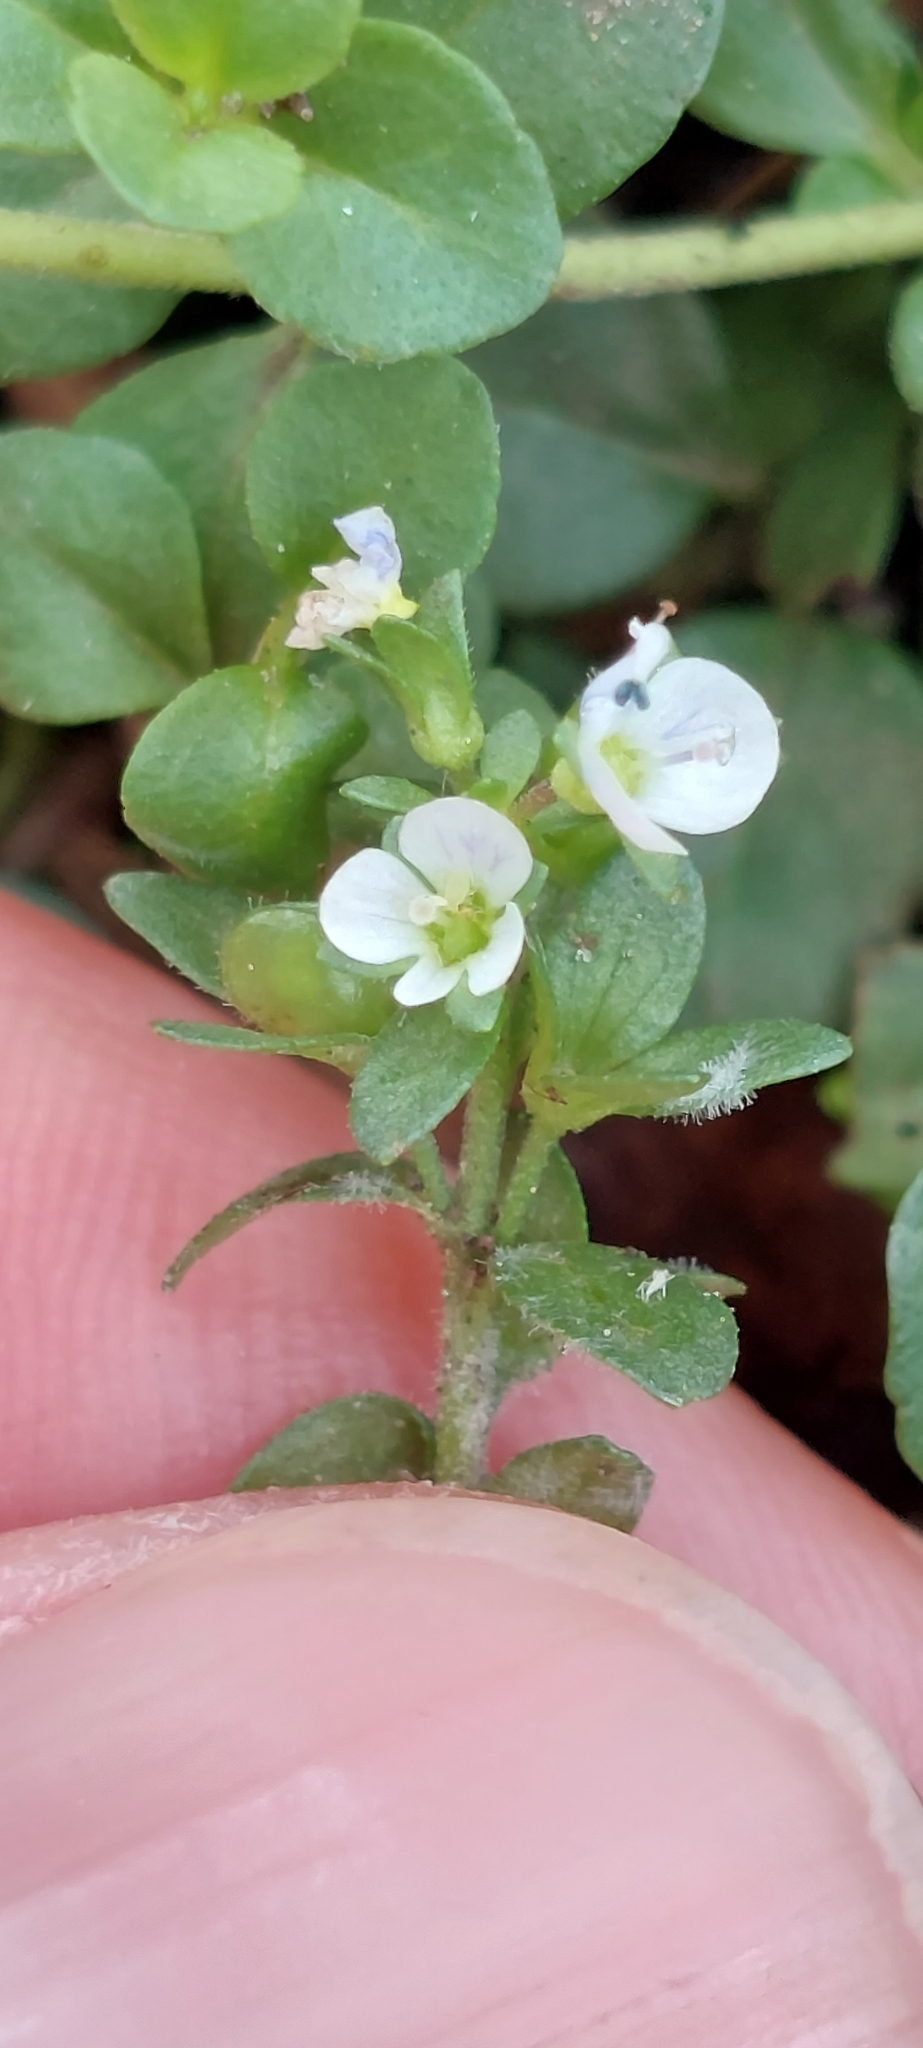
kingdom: Plantae
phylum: Tracheophyta
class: Magnoliopsida
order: Lamiales
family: Plantaginaceae
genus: Veronica
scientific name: Veronica serpyllifolia
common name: Thyme-leaved speedwell
